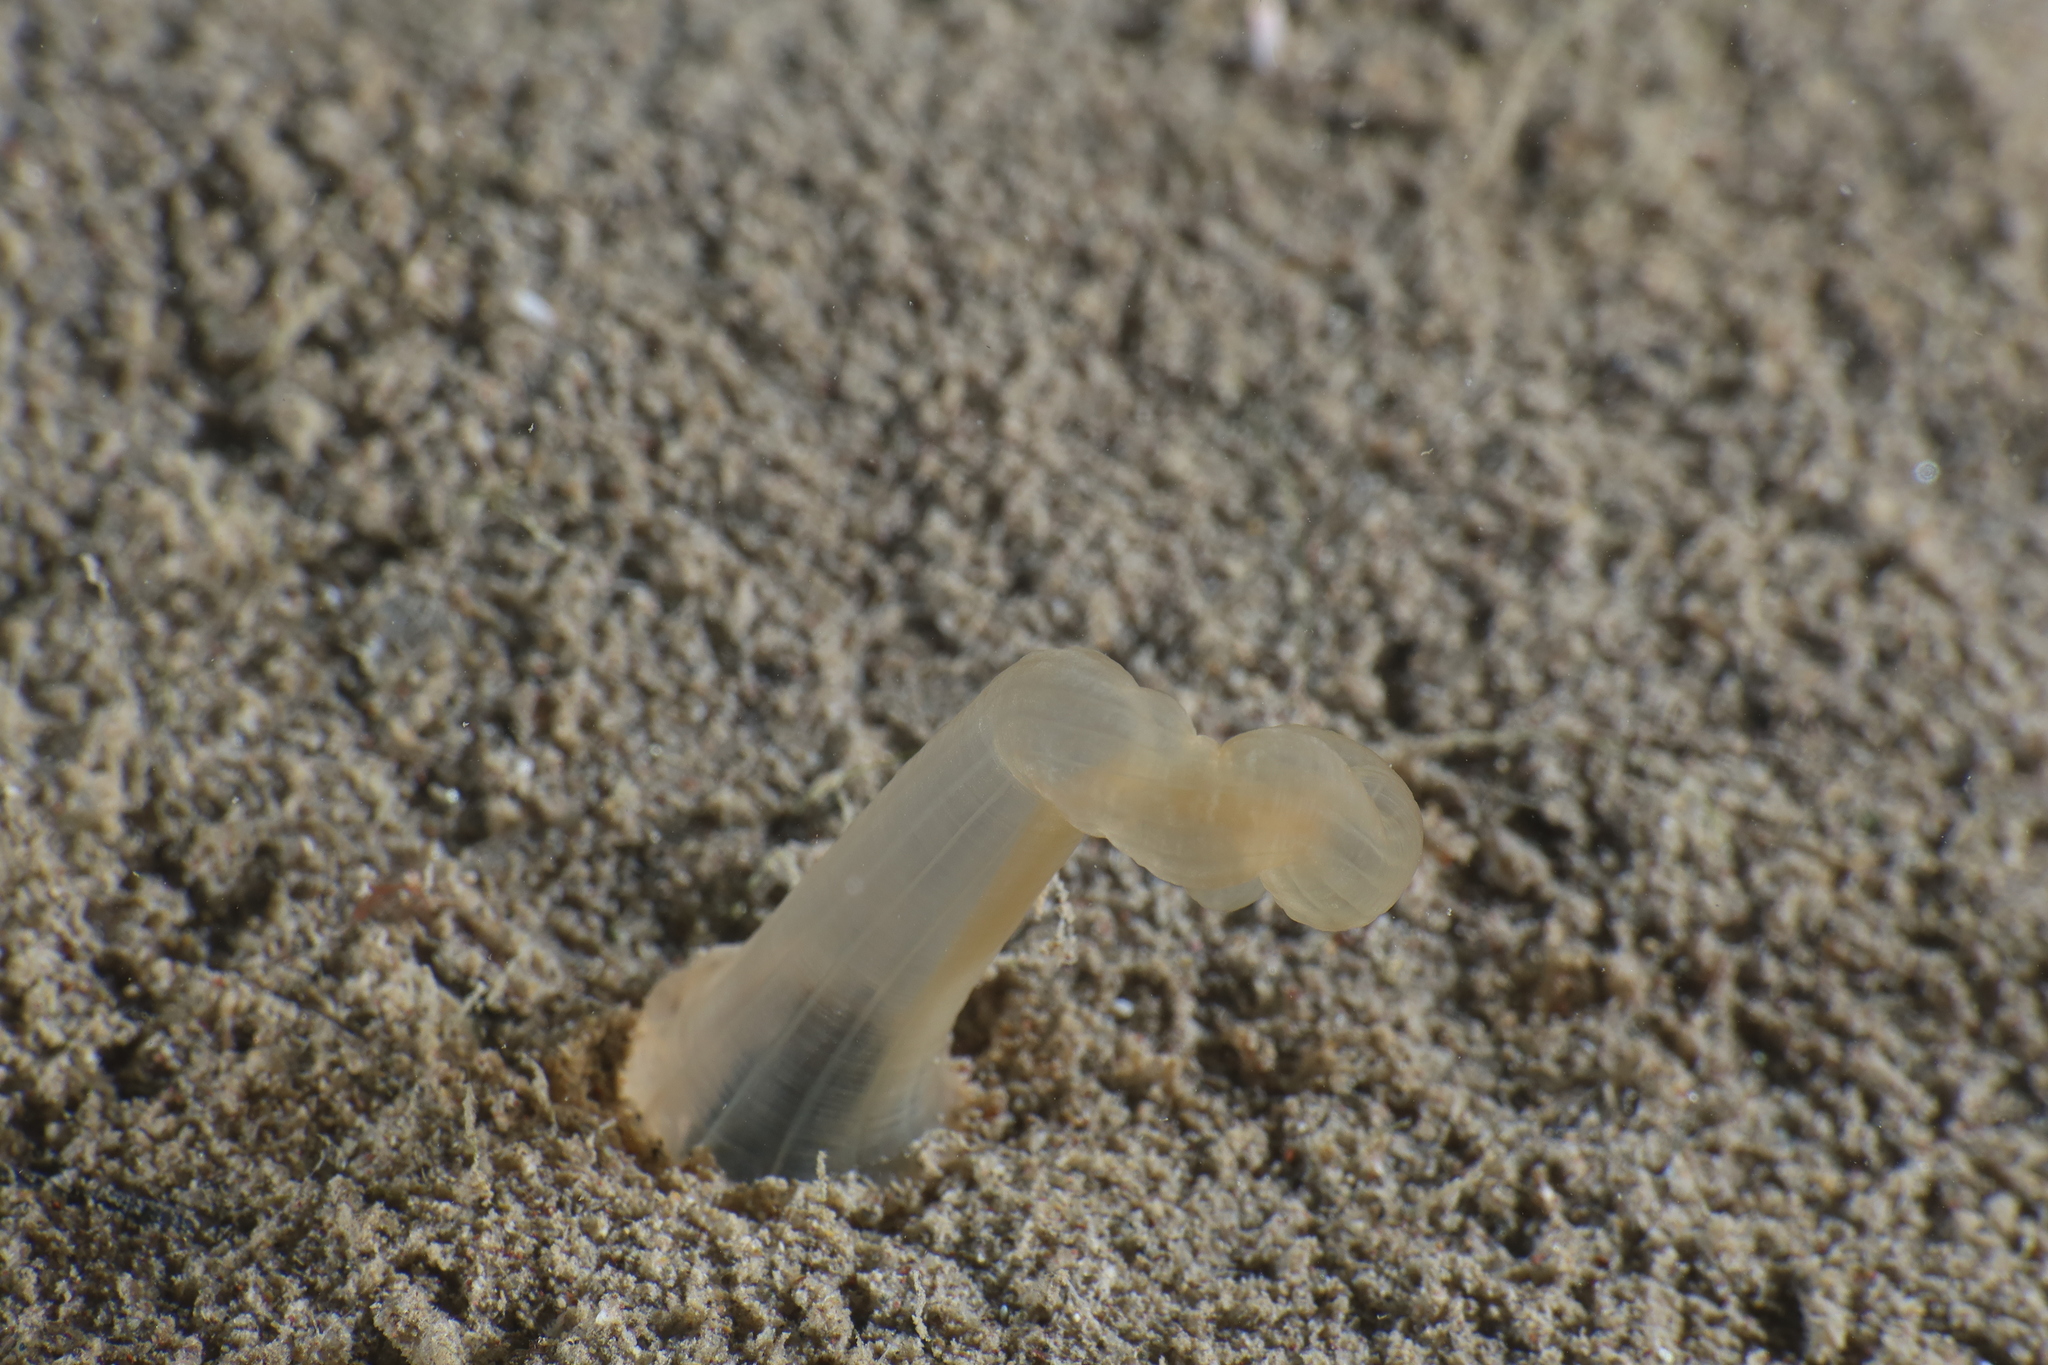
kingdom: Animalia
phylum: Cnidaria
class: Anthozoa
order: Actiniaria
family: Halcampoididae
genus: Halcampoides
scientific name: Halcampoides purpureus
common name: Purple anemone
